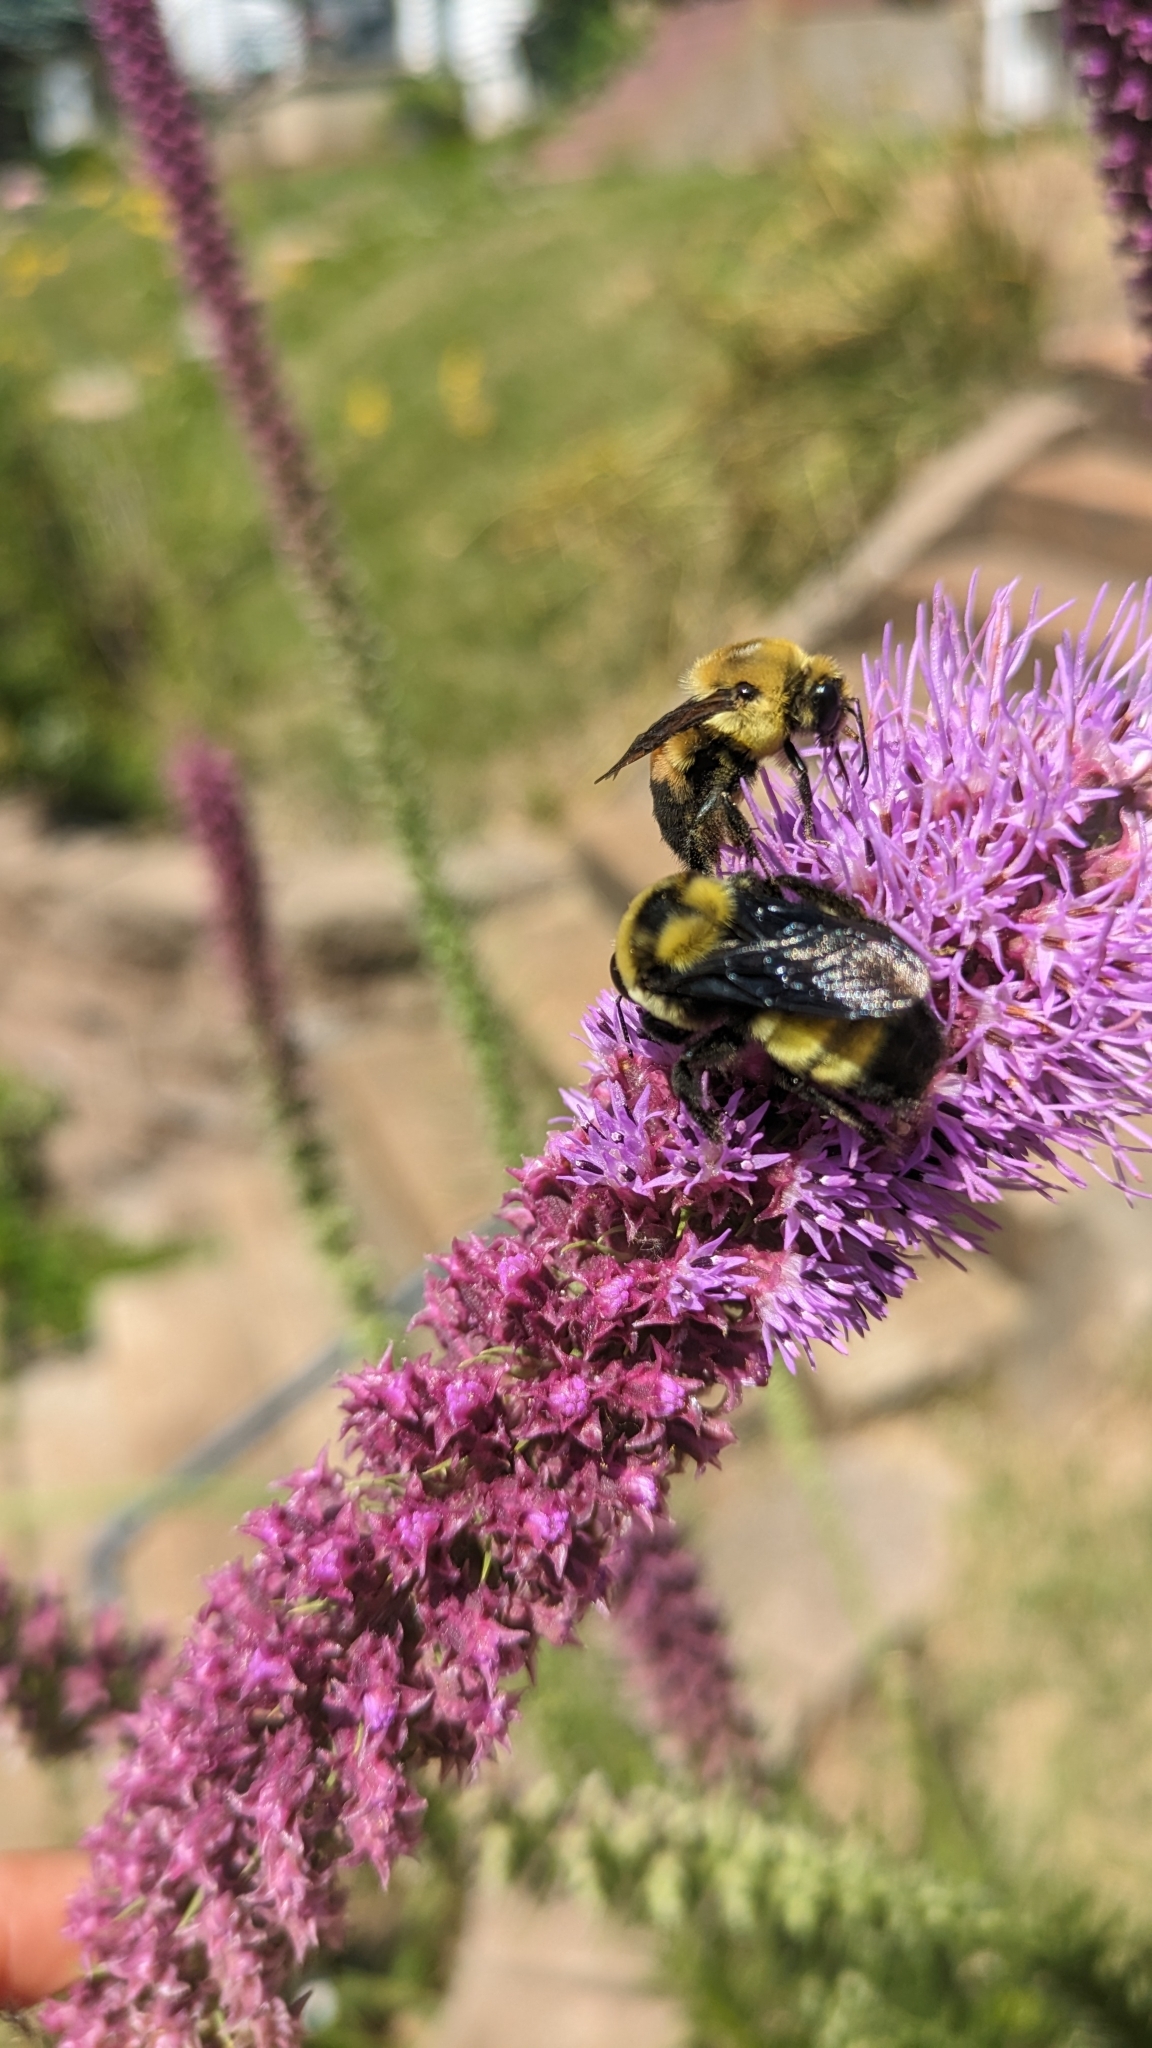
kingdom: Animalia
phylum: Arthropoda
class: Insecta
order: Hymenoptera
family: Apidae
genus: Bombus
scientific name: Bombus griseocollis
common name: Brown-belted bumble bee
